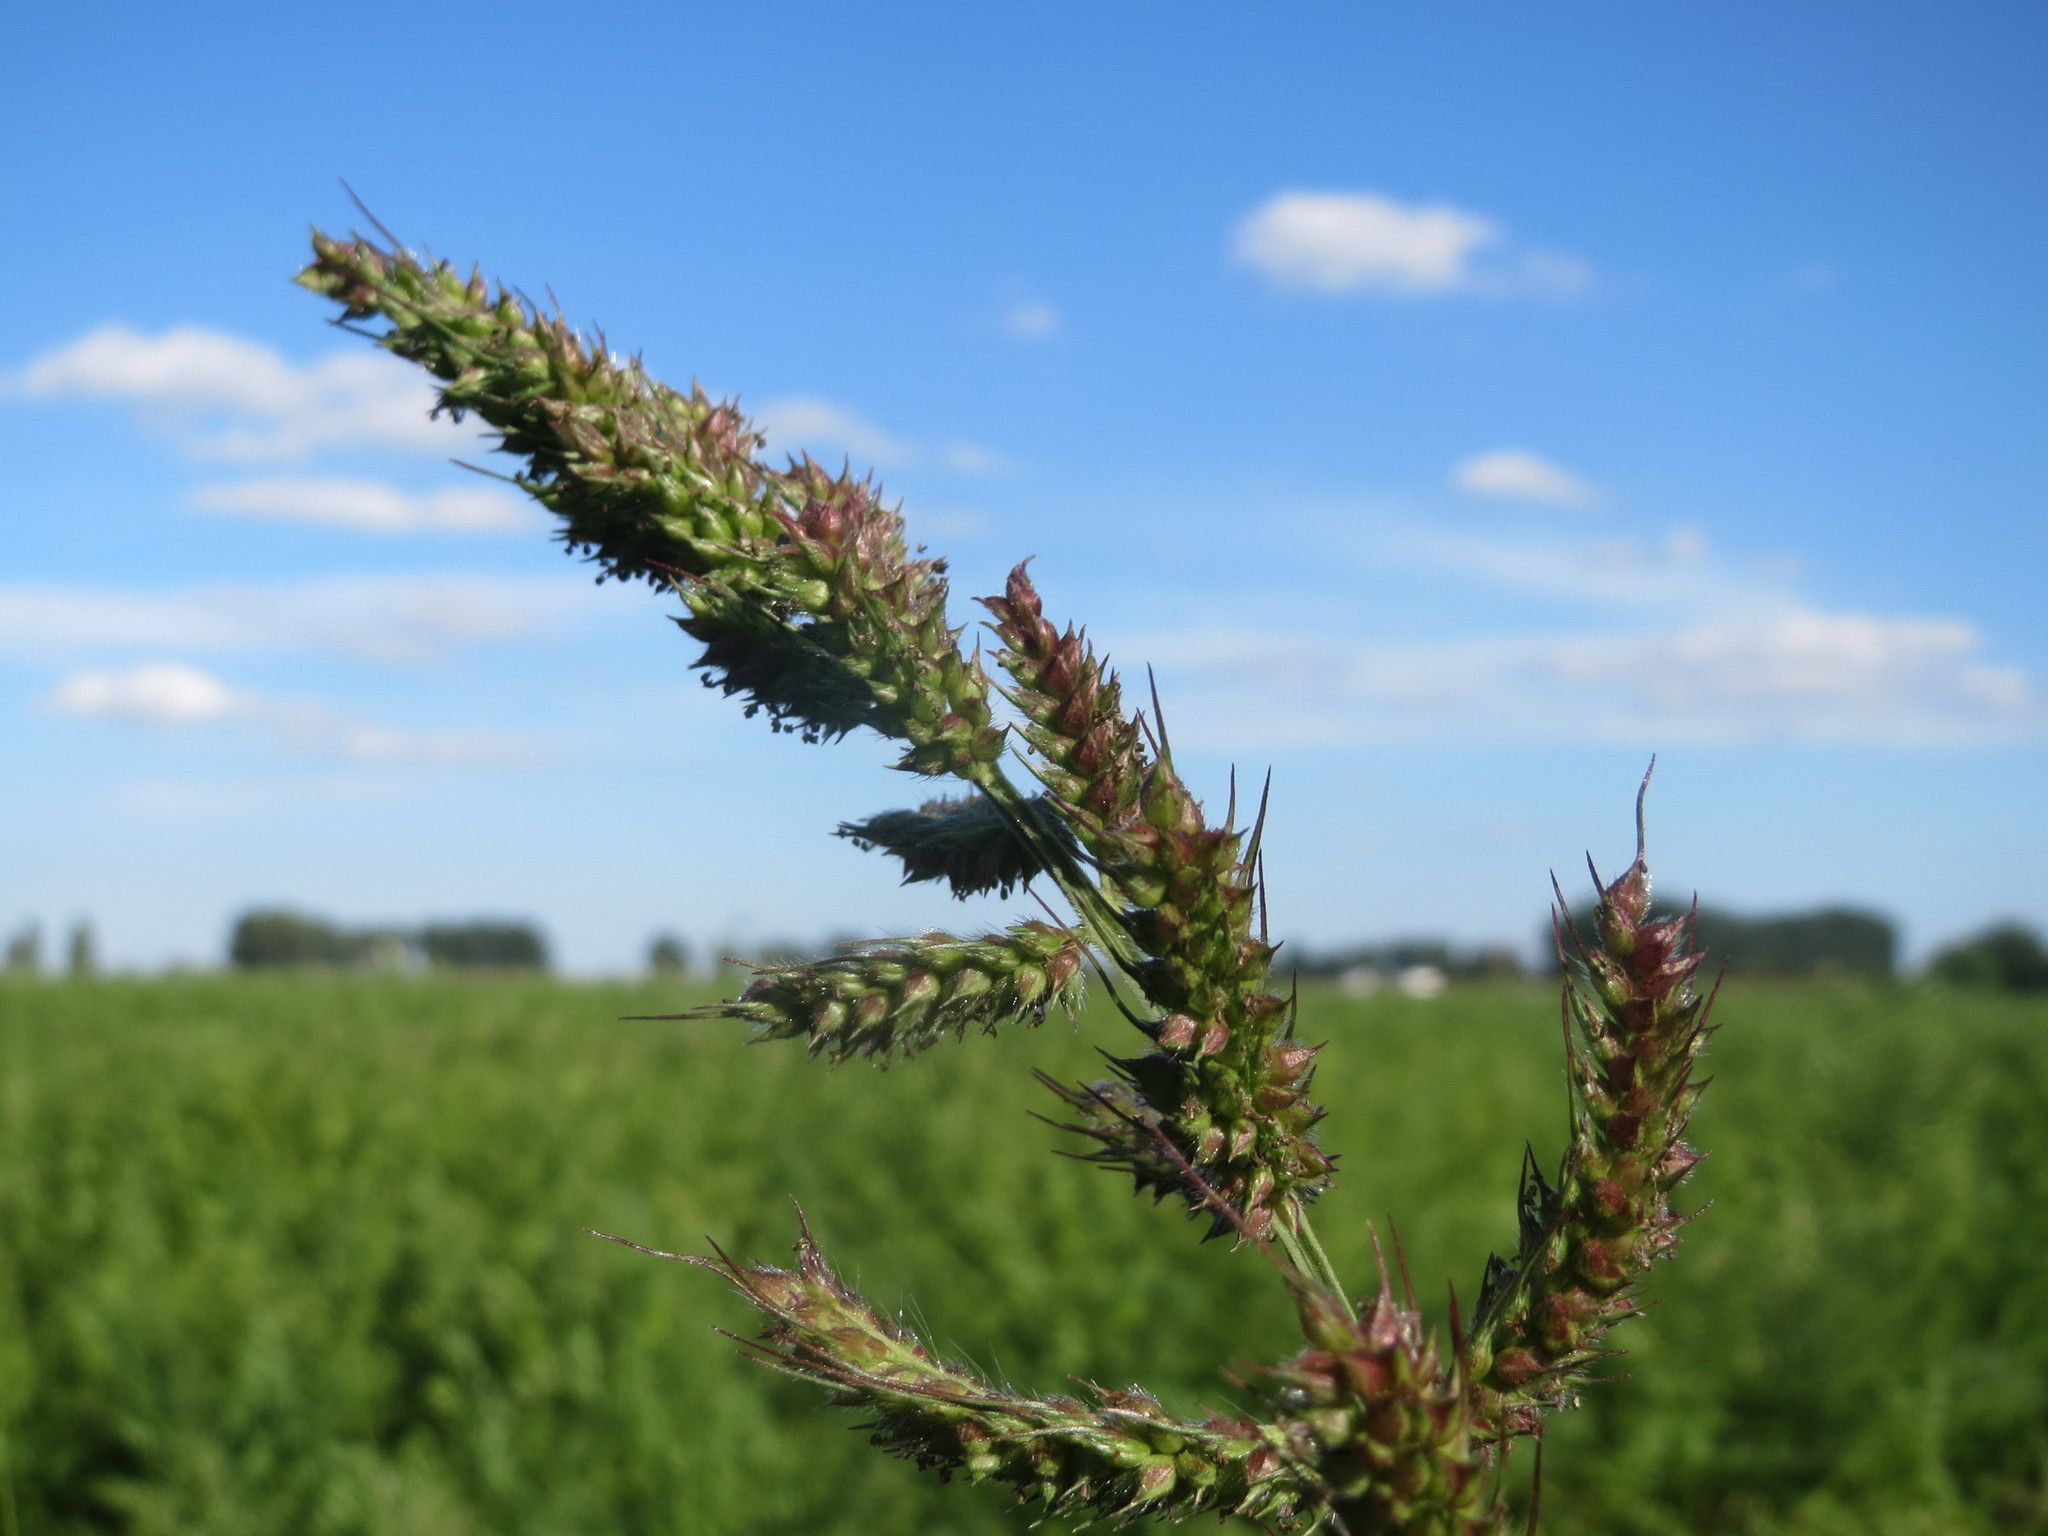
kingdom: Plantae
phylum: Tracheophyta
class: Liliopsida
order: Poales
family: Poaceae
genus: Echinochloa
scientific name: Echinochloa crus-galli
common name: Cockspur
